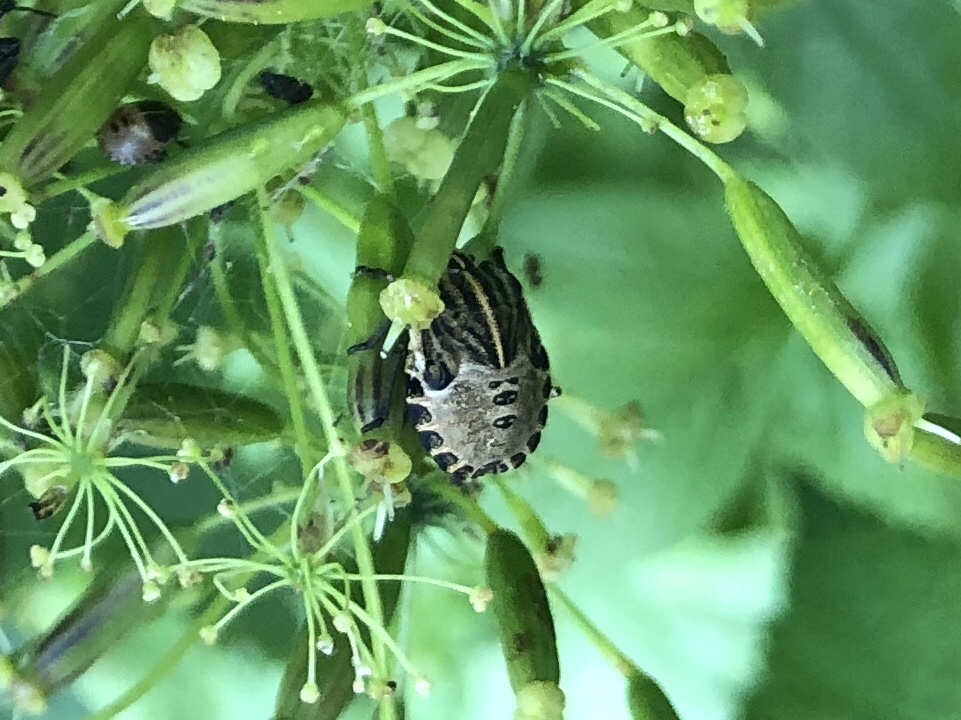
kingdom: Animalia
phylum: Arthropoda
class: Insecta
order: Hemiptera
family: Pentatomidae
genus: Graphosoma
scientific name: Graphosoma italicum
